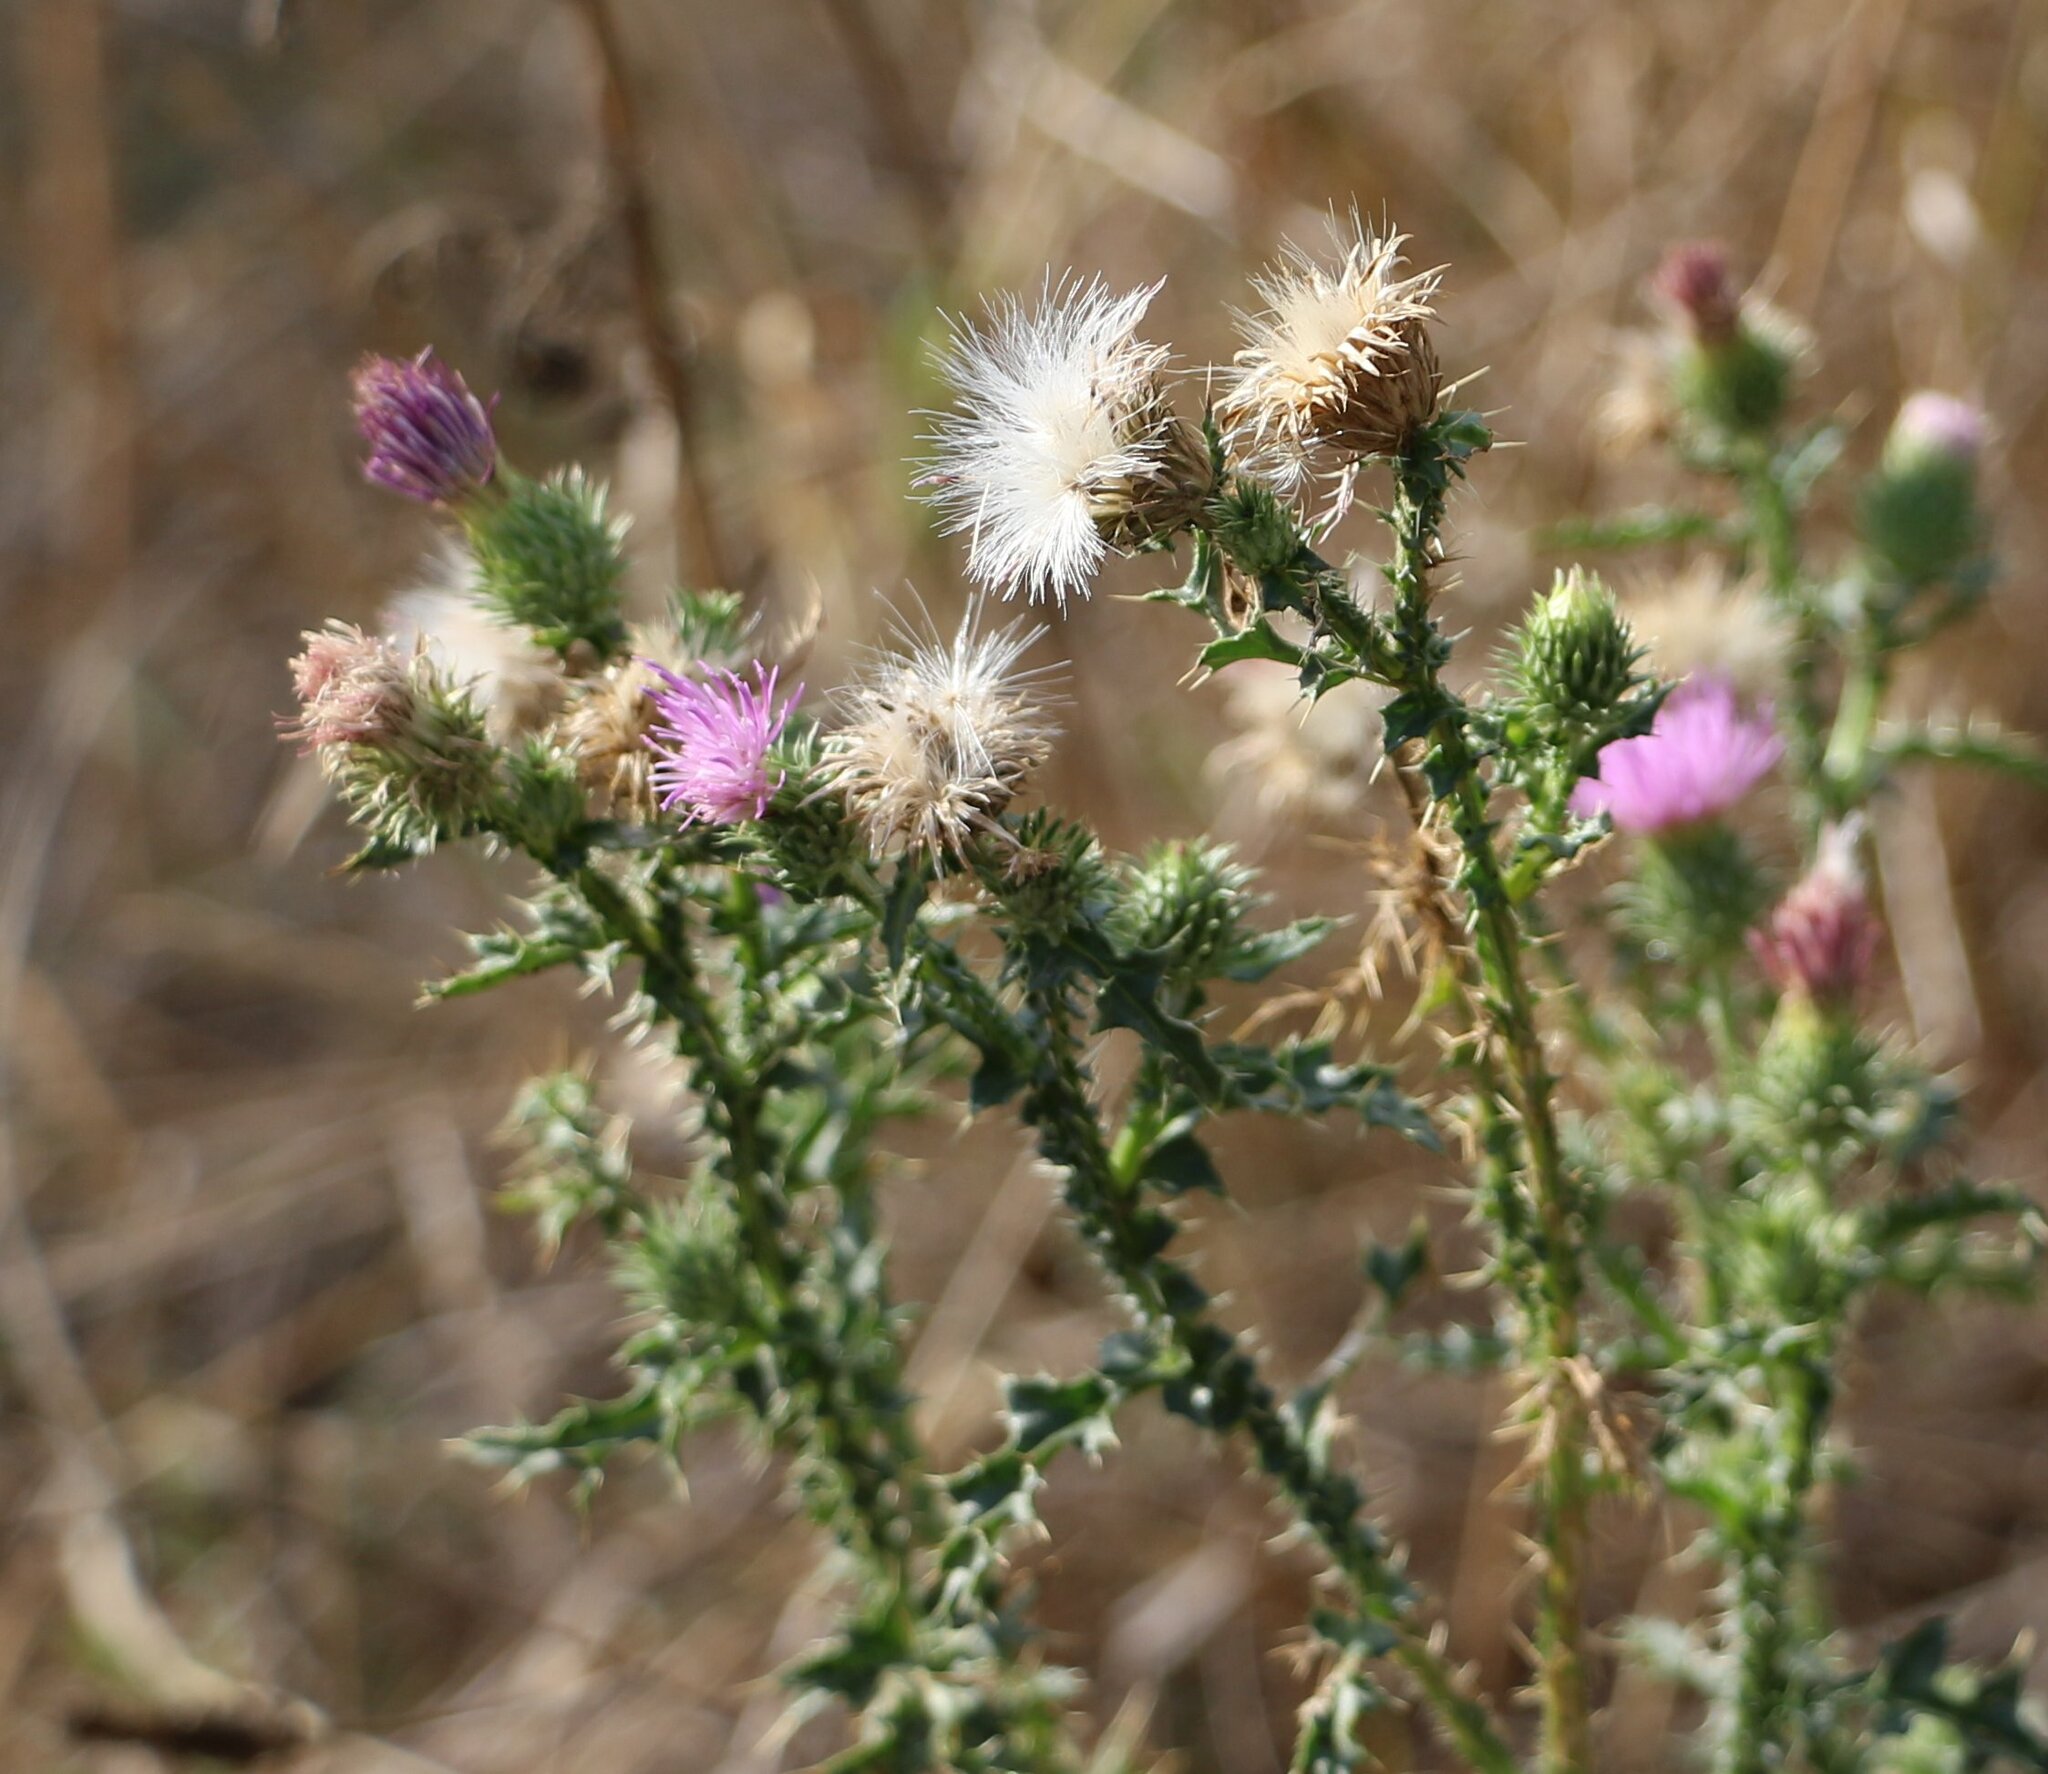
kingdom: Plantae
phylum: Tracheophyta
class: Magnoliopsida
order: Asterales
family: Asteraceae
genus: Carduus
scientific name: Carduus acanthoides
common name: Plumeless thistle
